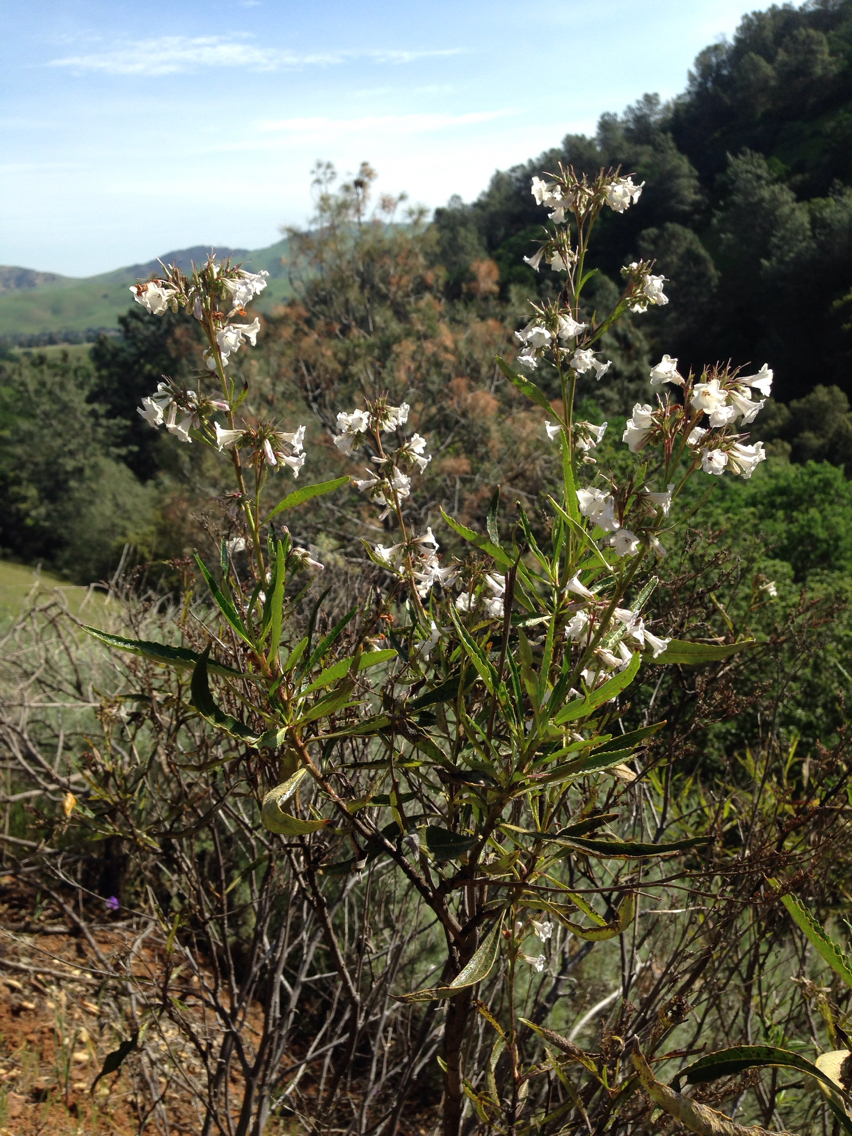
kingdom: Plantae
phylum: Tracheophyta
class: Magnoliopsida
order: Boraginales
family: Namaceae
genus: Eriodictyon
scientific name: Eriodictyon californicum
